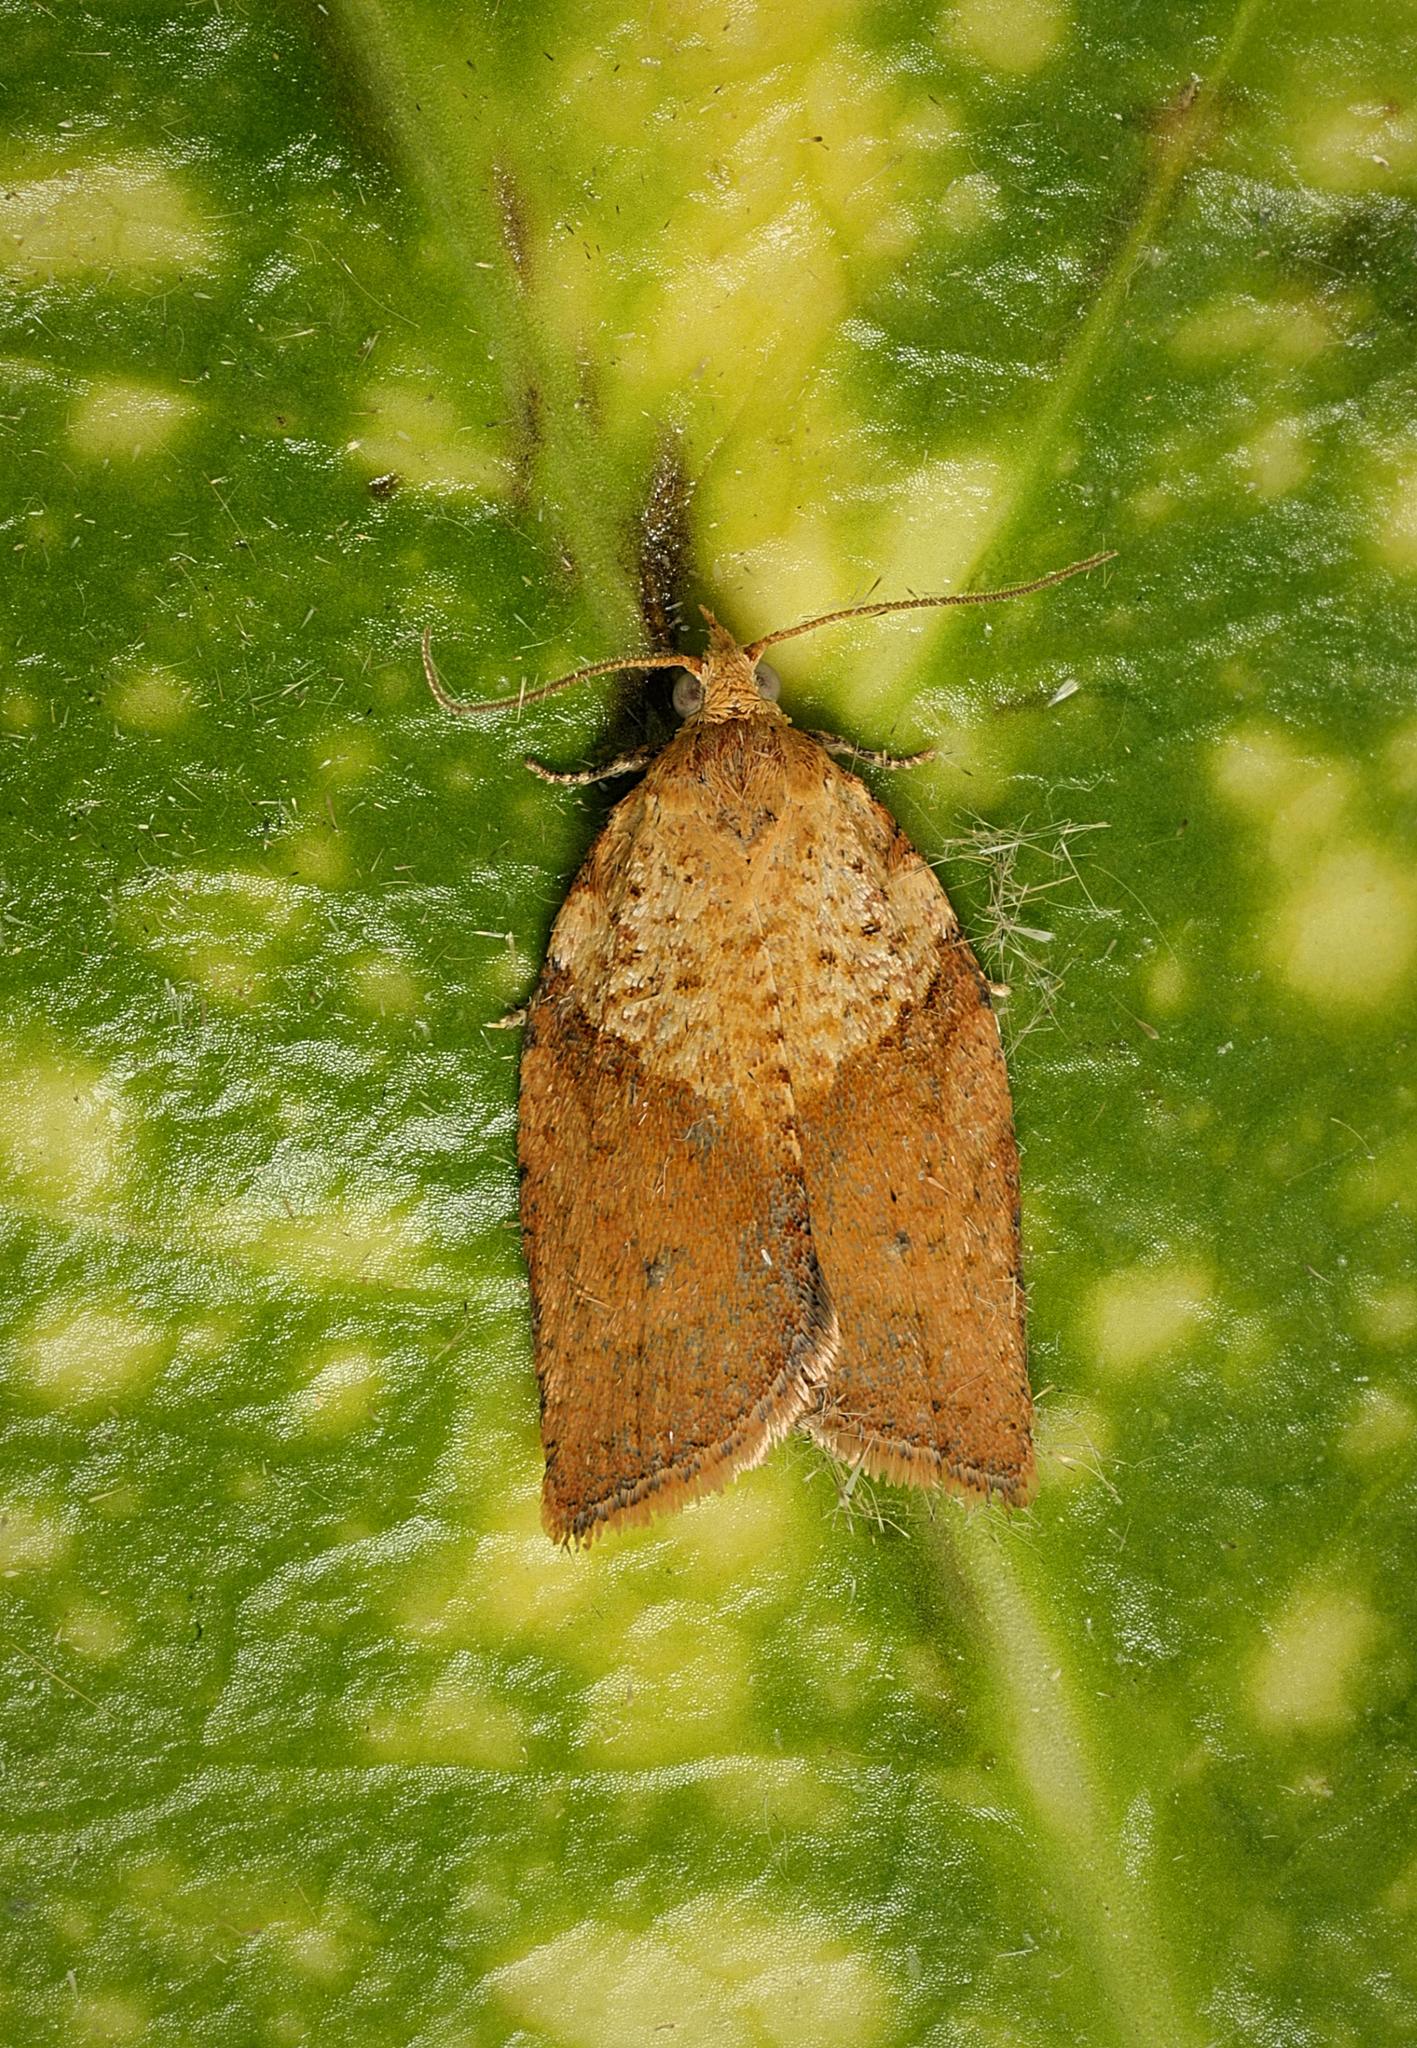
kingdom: Animalia
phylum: Arthropoda
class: Insecta
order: Lepidoptera
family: Tortricidae
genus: Epiphyas
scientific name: Epiphyas postvittana
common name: Light brown apple moth
